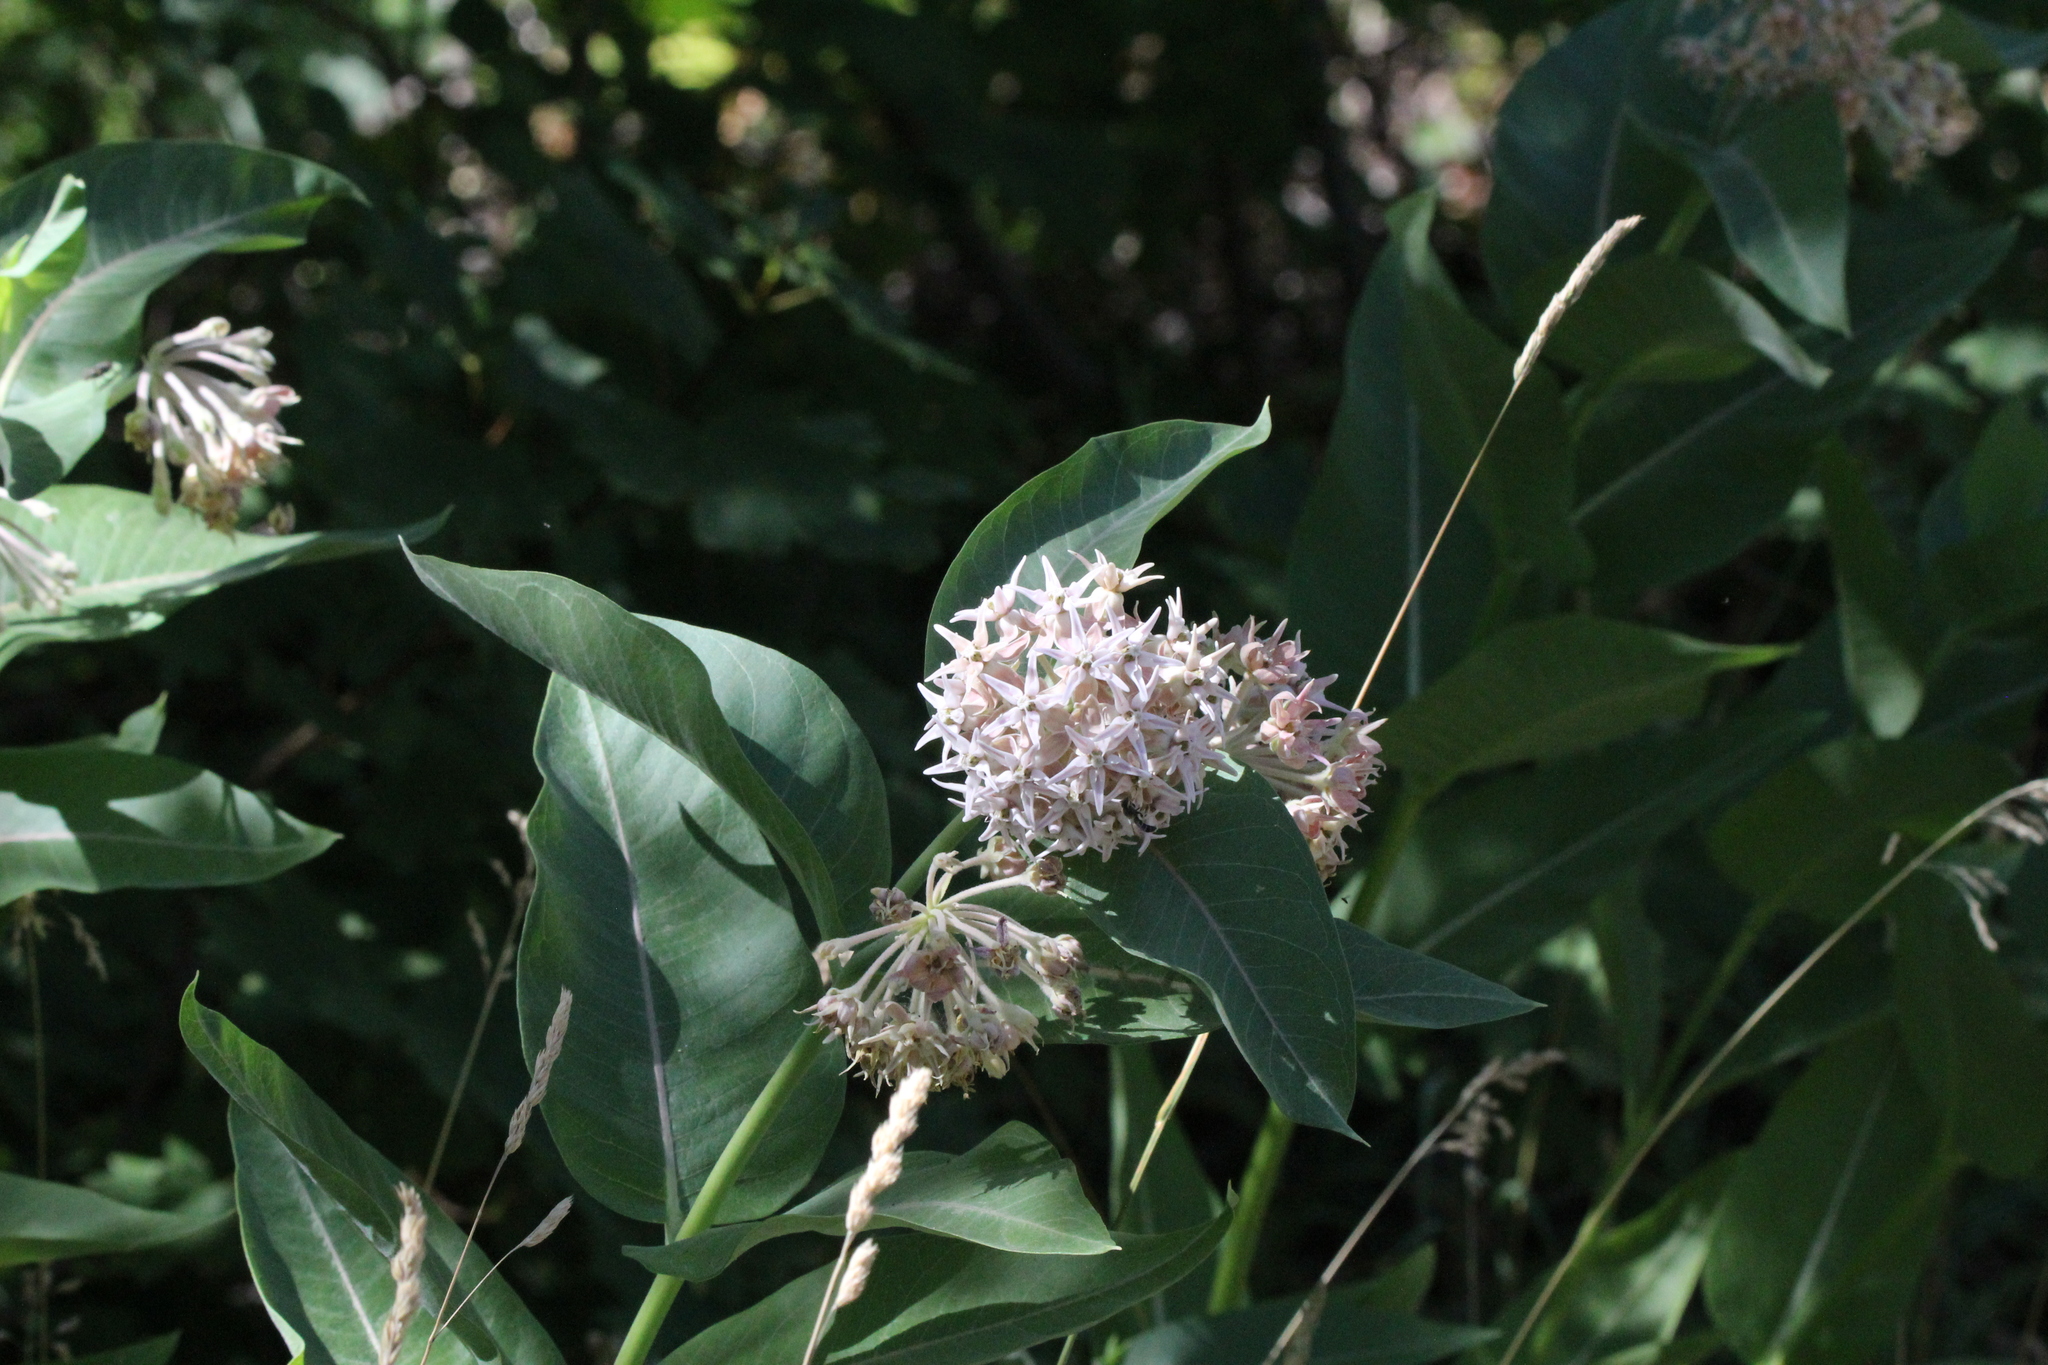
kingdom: Plantae
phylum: Tracheophyta
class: Magnoliopsida
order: Gentianales
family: Apocynaceae
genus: Asclepias
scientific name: Asclepias speciosa
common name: Showy milkweed
